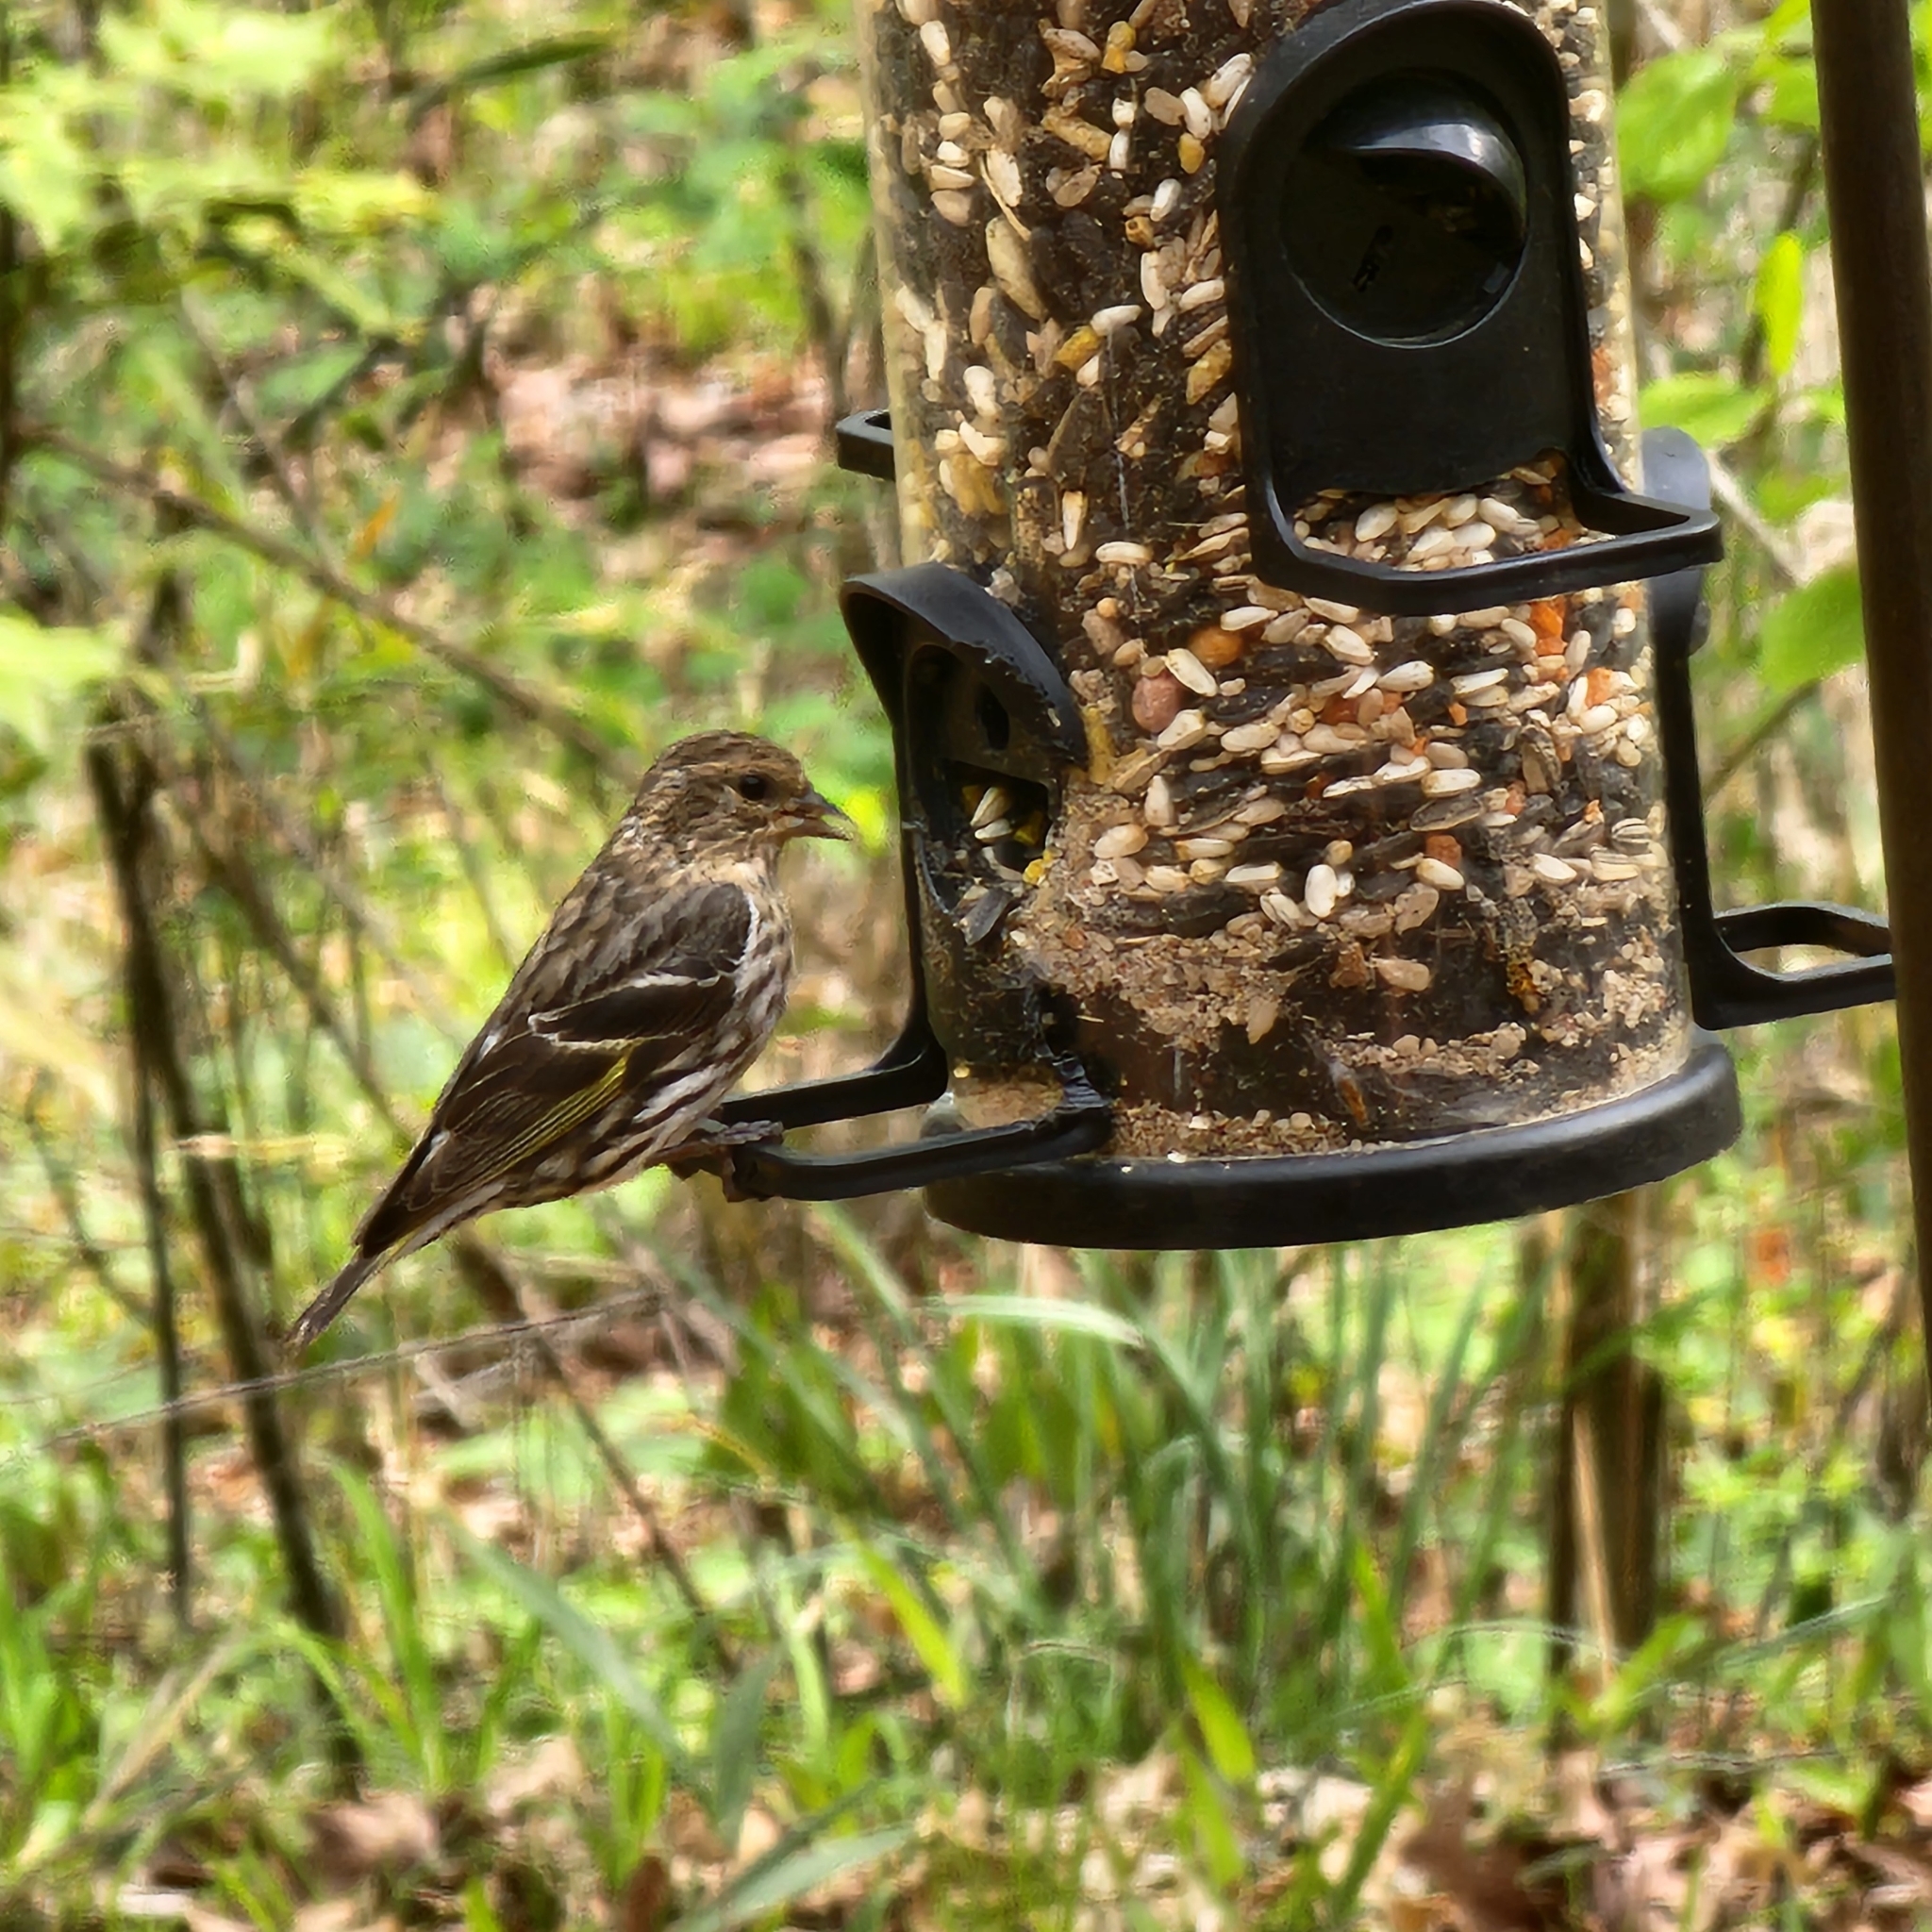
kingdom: Animalia
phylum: Chordata
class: Aves
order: Passeriformes
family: Fringillidae
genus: Spinus
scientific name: Spinus pinus
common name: Pine siskin
